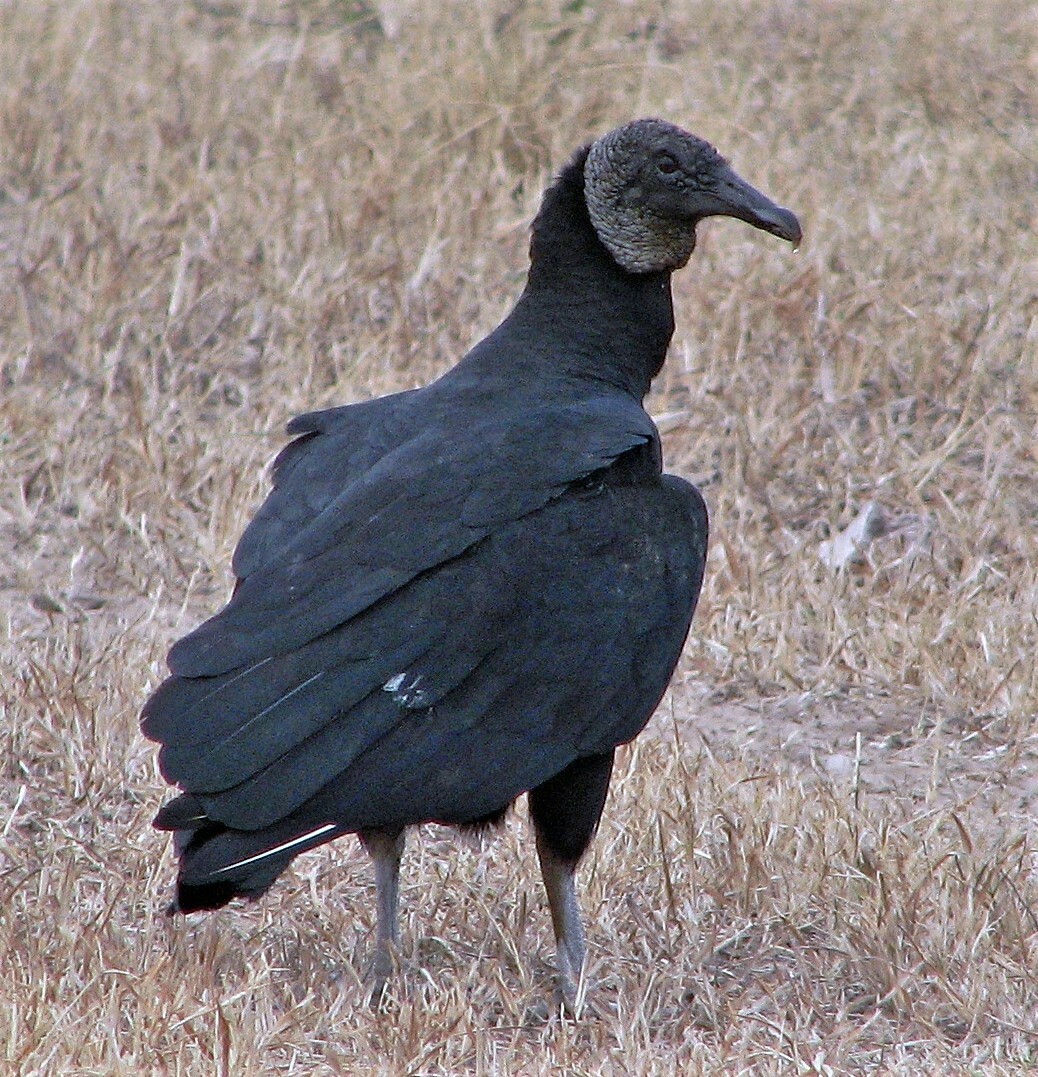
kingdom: Animalia
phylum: Chordata
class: Aves
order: Accipitriformes
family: Cathartidae
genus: Coragyps
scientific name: Coragyps atratus
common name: Black vulture
